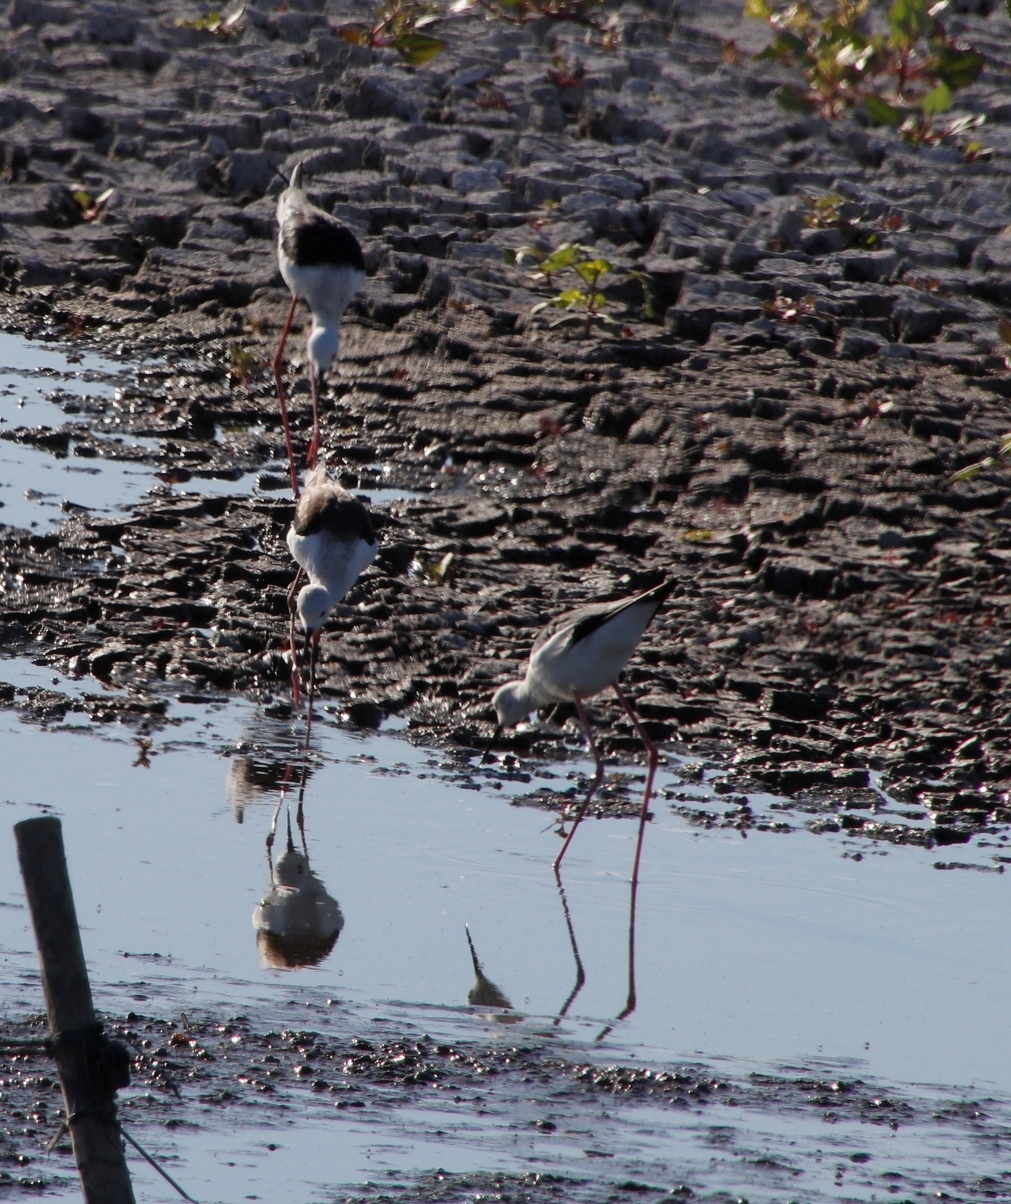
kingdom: Animalia
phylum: Chordata
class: Aves
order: Charadriiformes
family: Recurvirostridae
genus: Himantopus
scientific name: Himantopus himantopus
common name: Black-winged stilt
